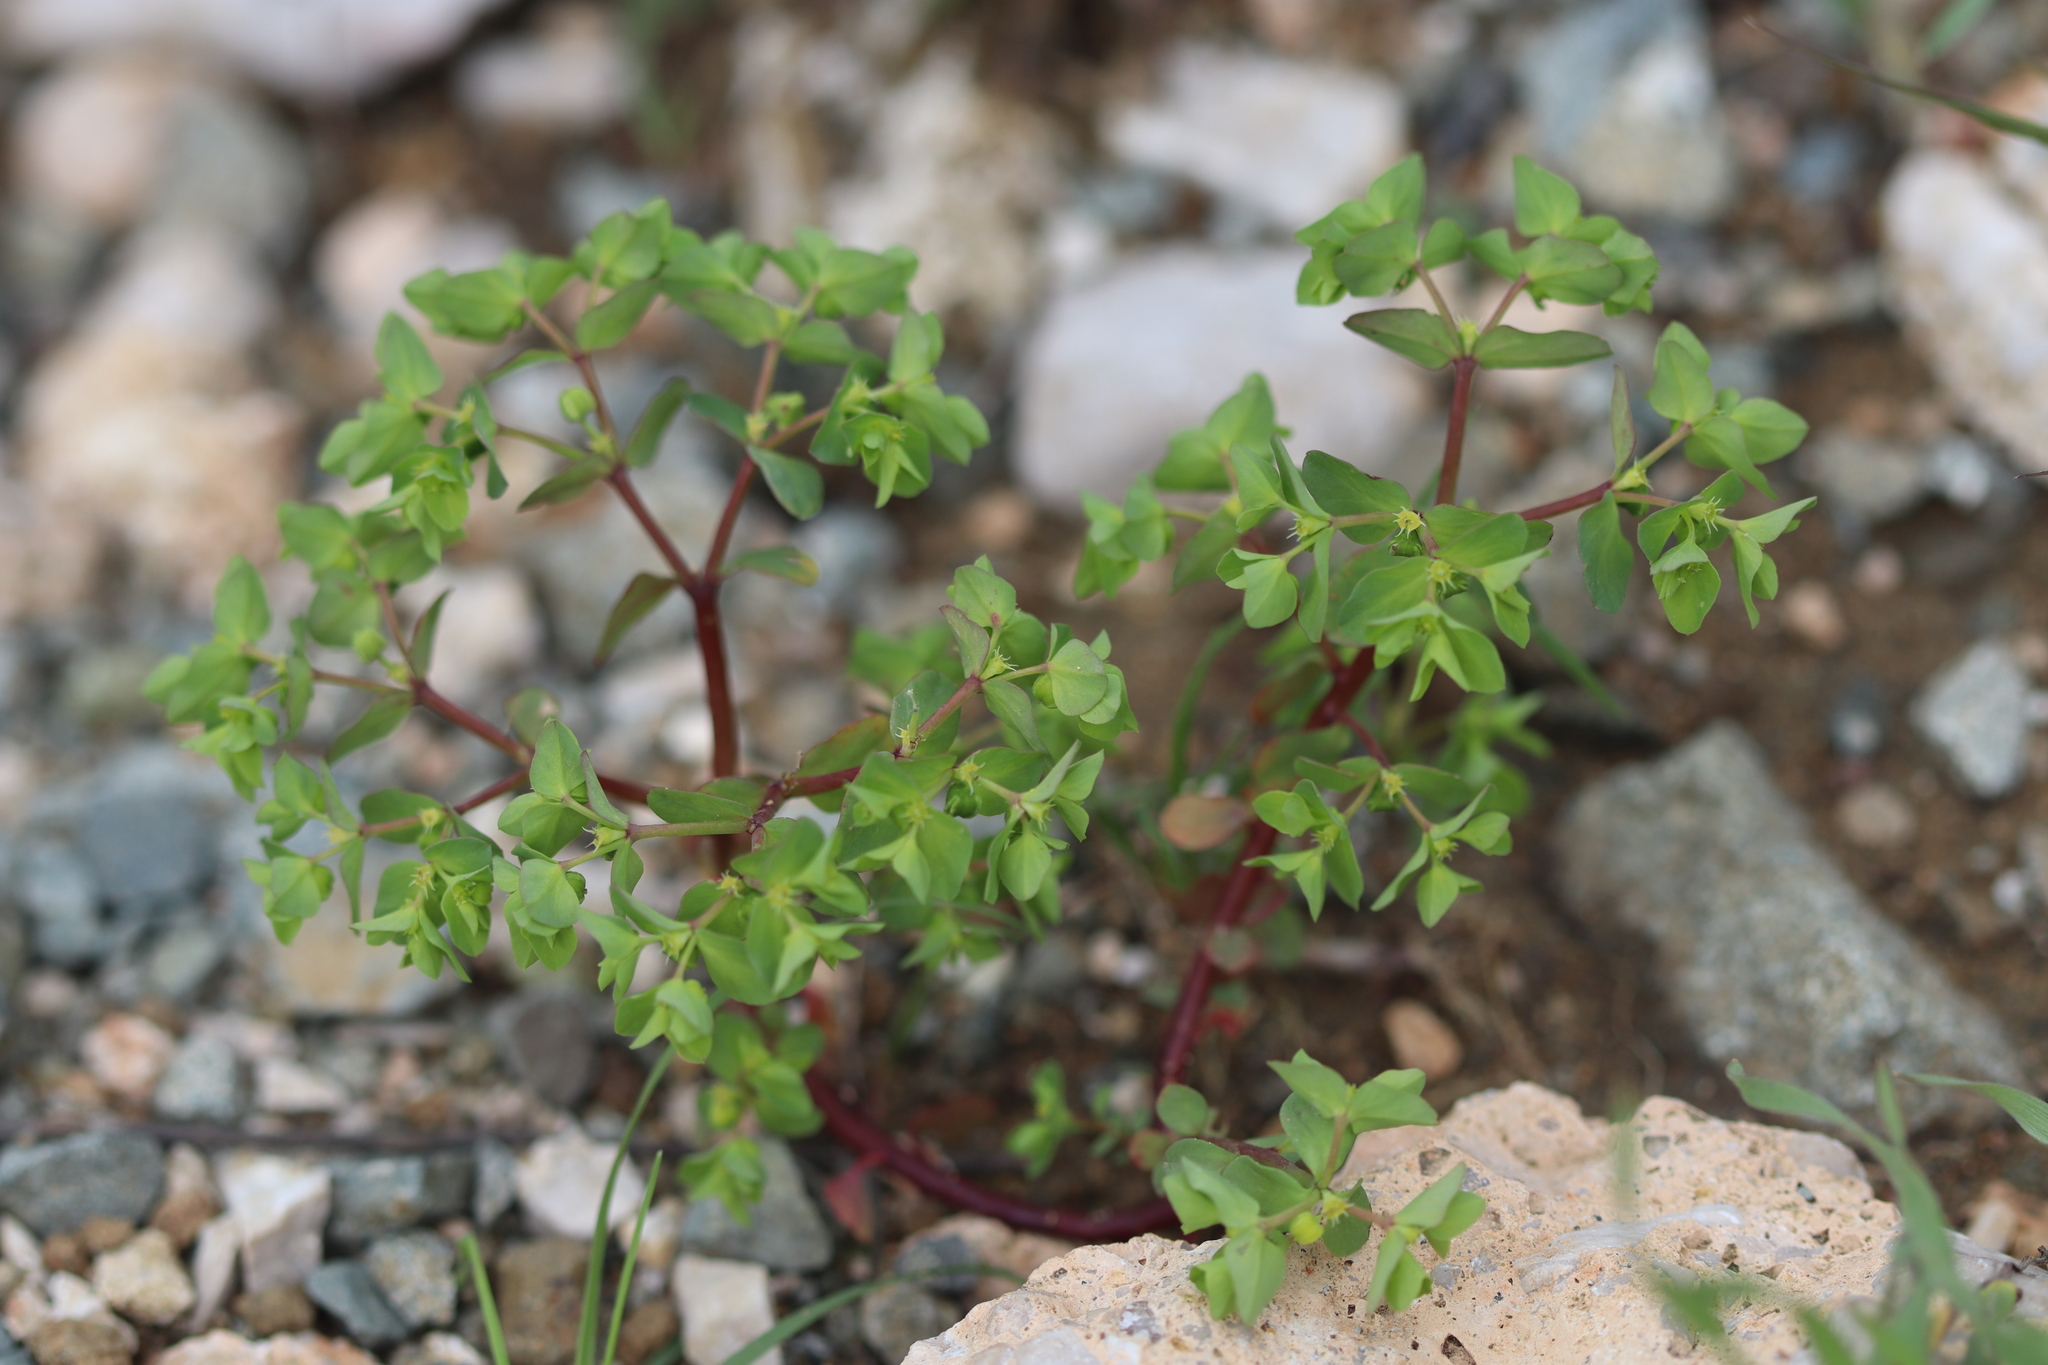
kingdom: Plantae
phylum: Tracheophyta
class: Magnoliopsida
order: Malpighiales
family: Euphorbiaceae
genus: Euphorbia
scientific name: Euphorbia peplus
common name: Petty spurge
